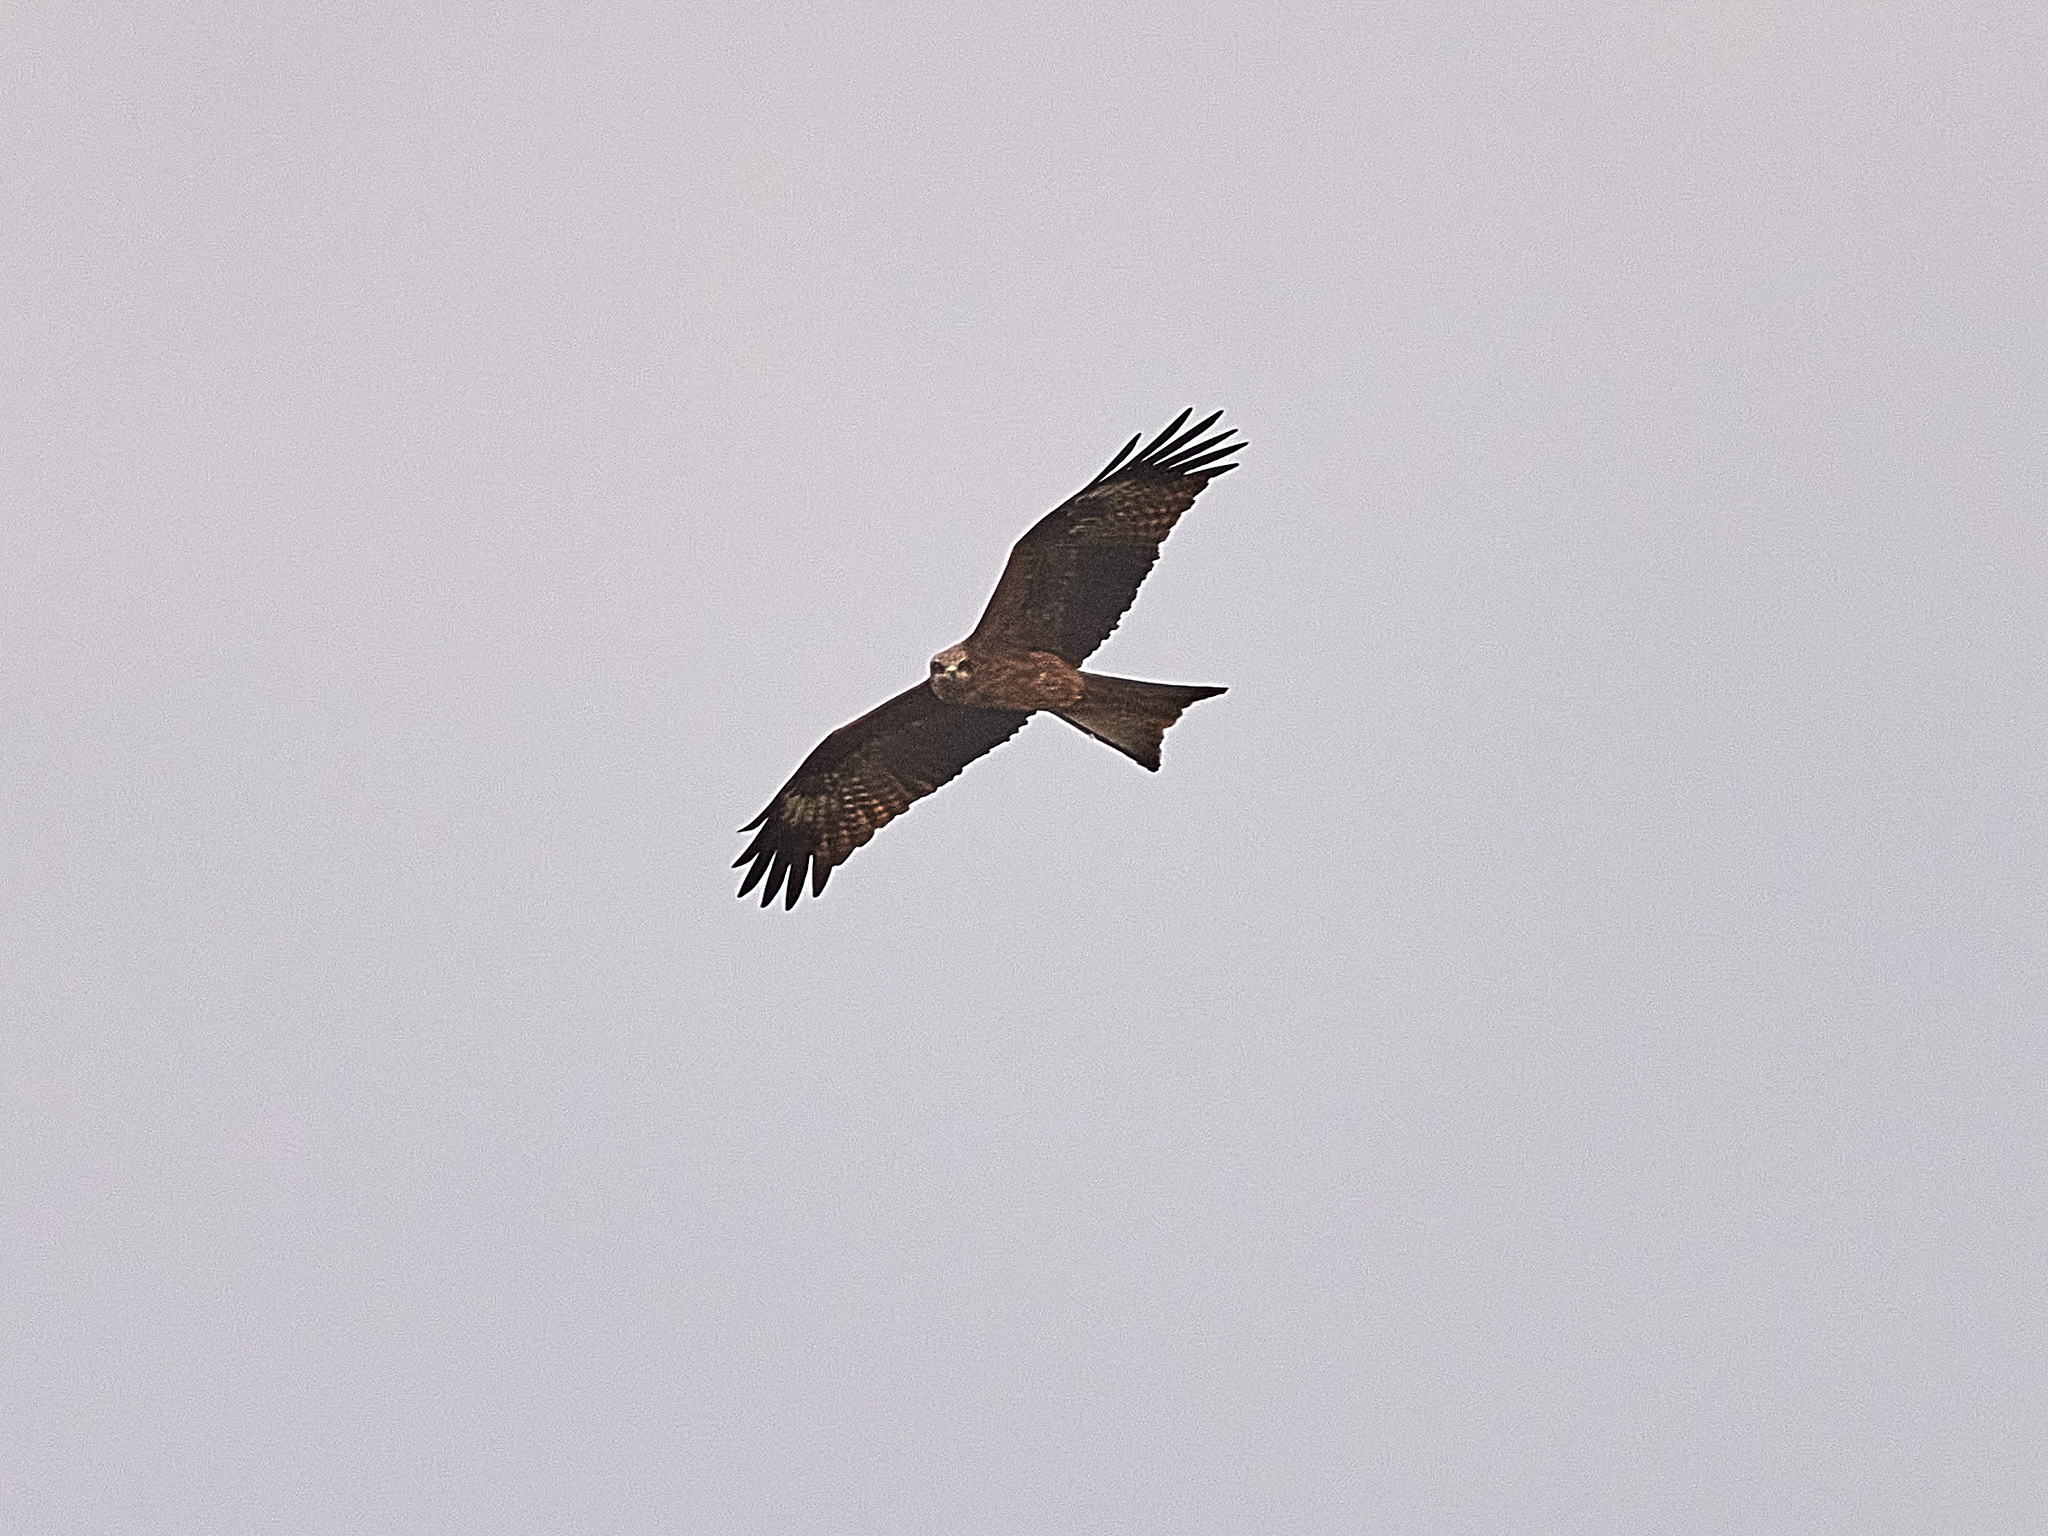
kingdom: Animalia
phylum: Chordata
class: Aves
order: Accipitriformes
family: Accipitridae
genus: Milvus
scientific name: Milvus migrans
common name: Black kite
